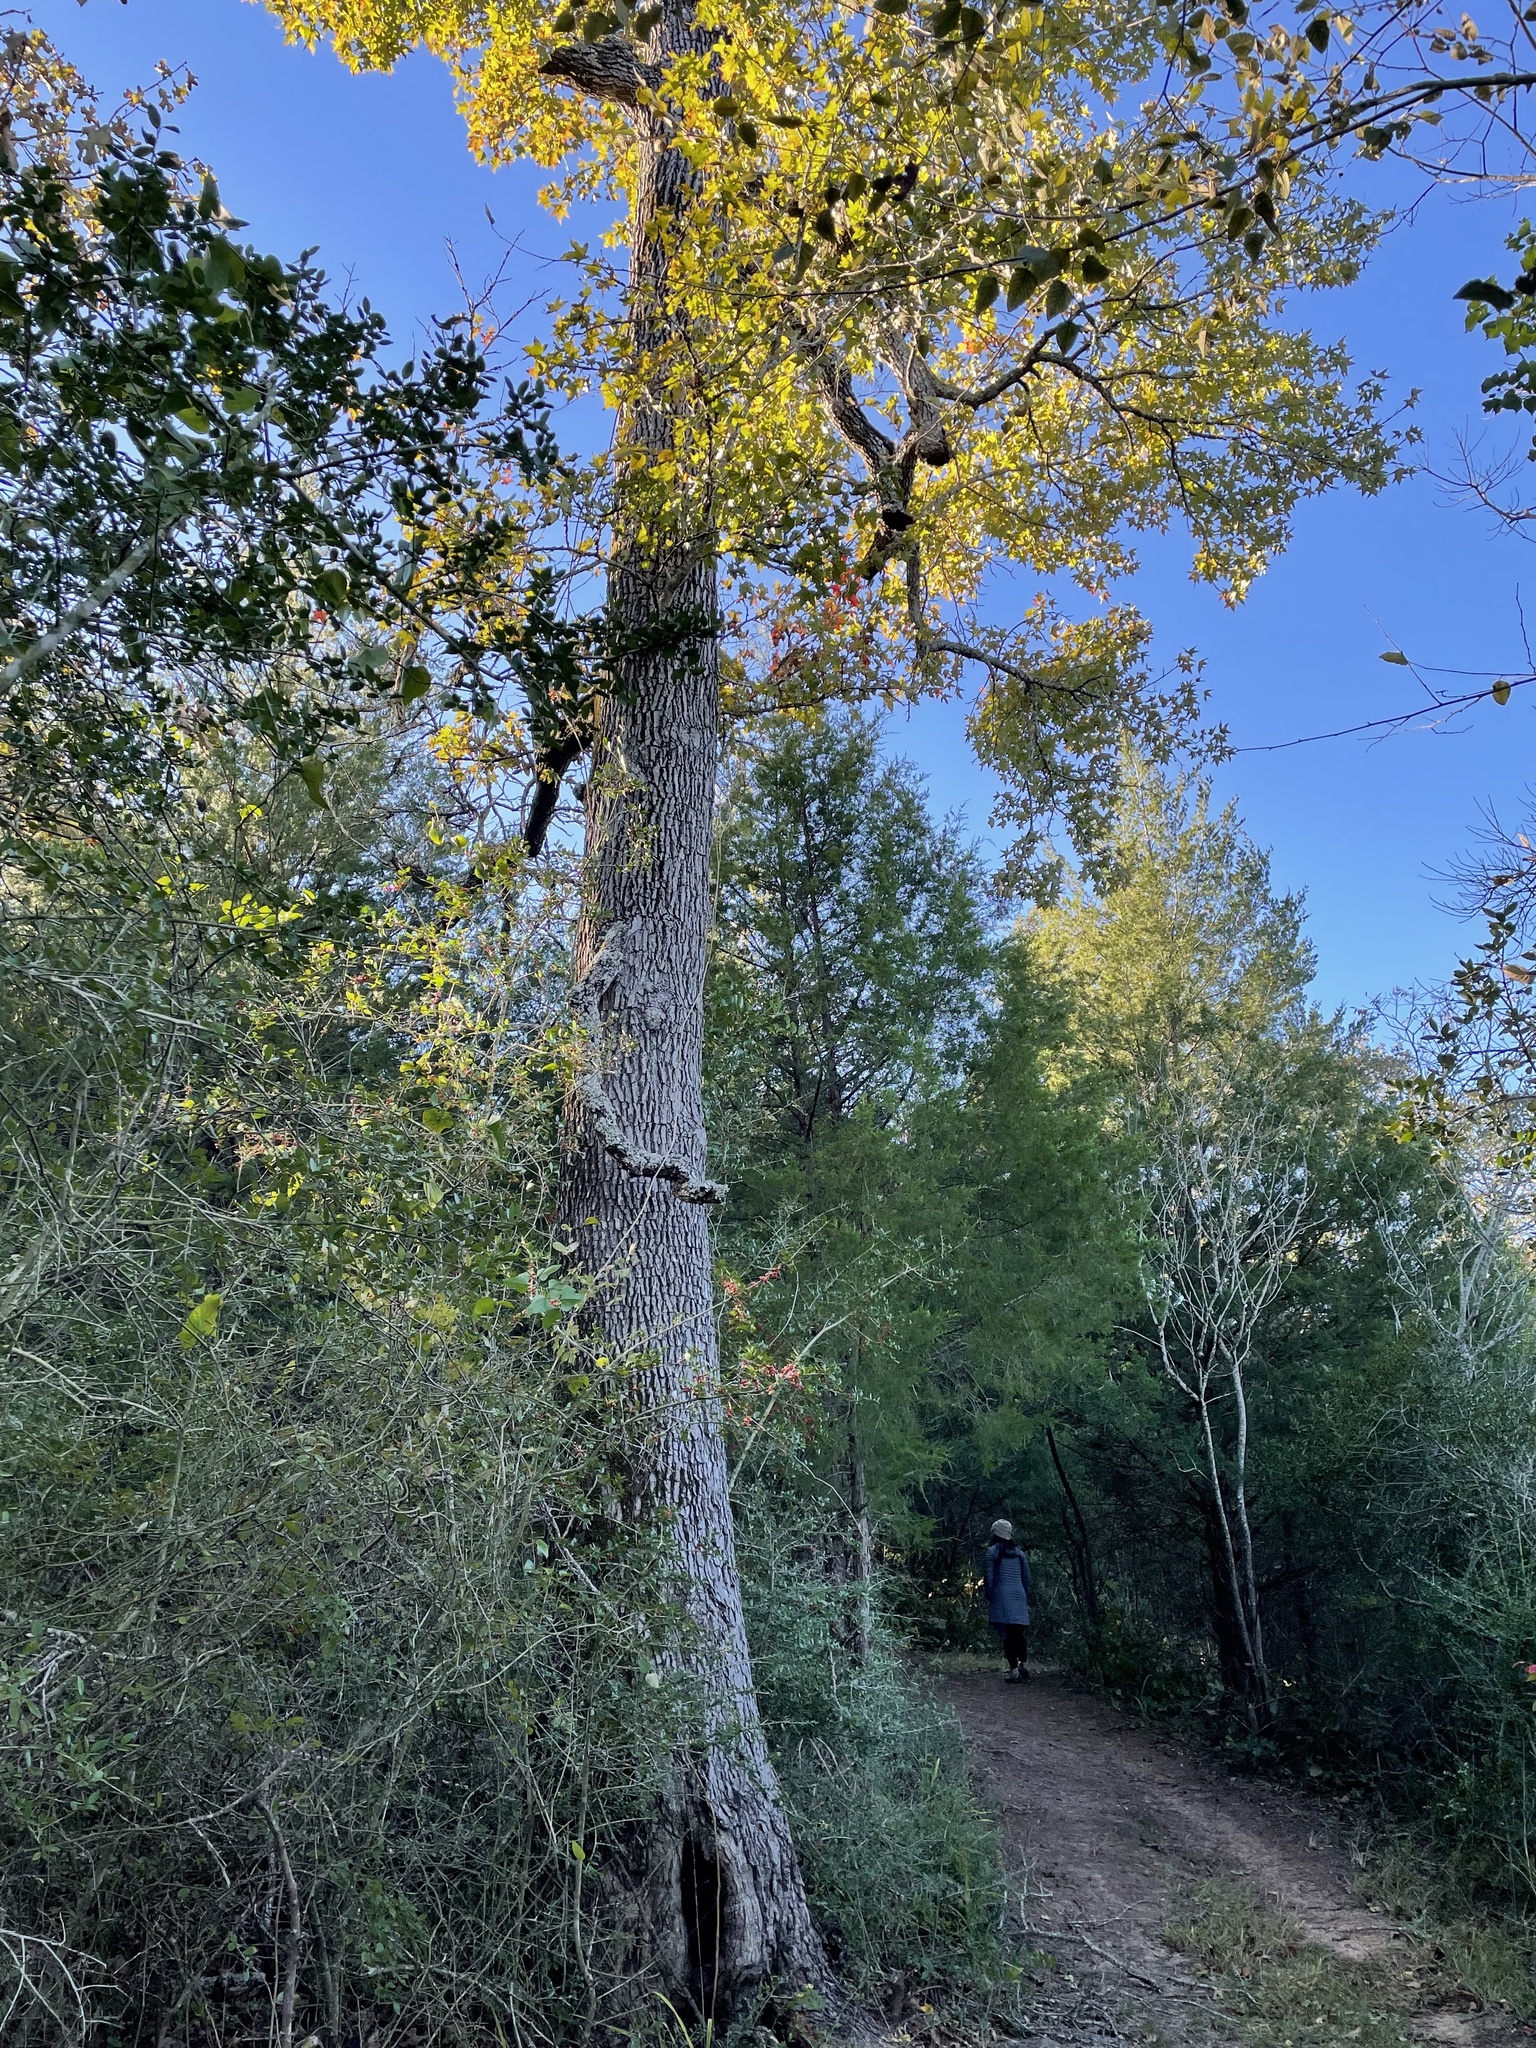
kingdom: Plantae
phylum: Tracheophyta
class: Magnoliopsida
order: Saxifragales
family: Altingiaceae
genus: Liquidambar
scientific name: Liquidambar styraciflua
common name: Sweet gum
